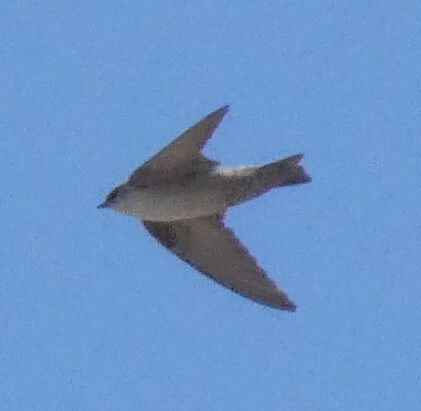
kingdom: Animalia
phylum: Chordata
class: Aves
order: Passeriformes
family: Hirundinidae
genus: Ptyonoprogne
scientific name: Ptyonoprogne fuligula
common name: Rock martin
